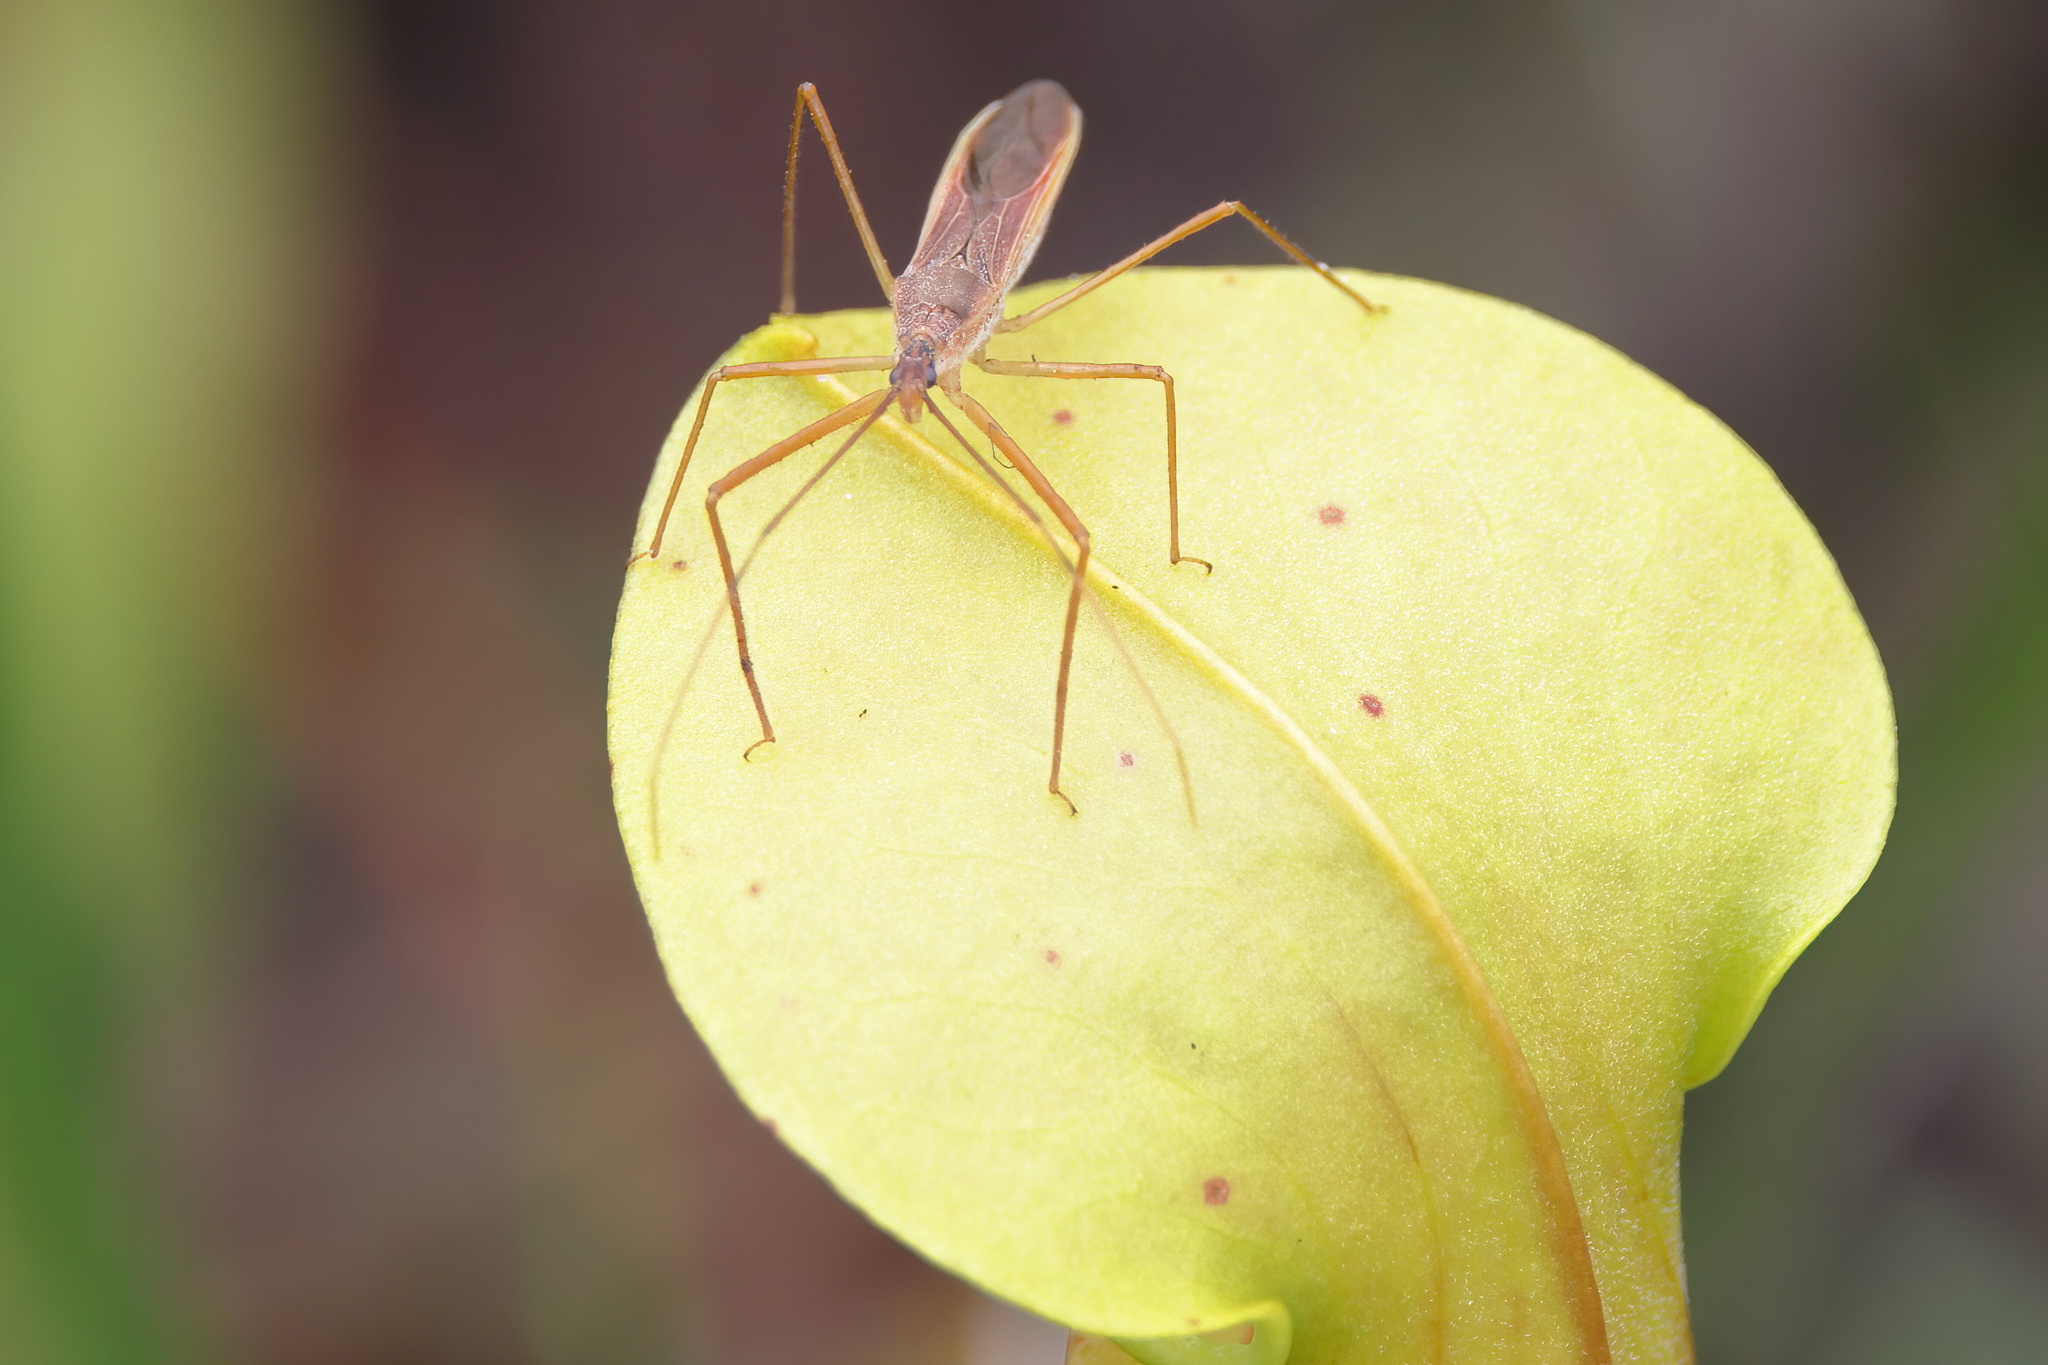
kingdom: Animalia
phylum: Arthropoda
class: Insecta
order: Hemiptera
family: Reduviidae
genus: Zelus
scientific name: Zelus cervicalis
